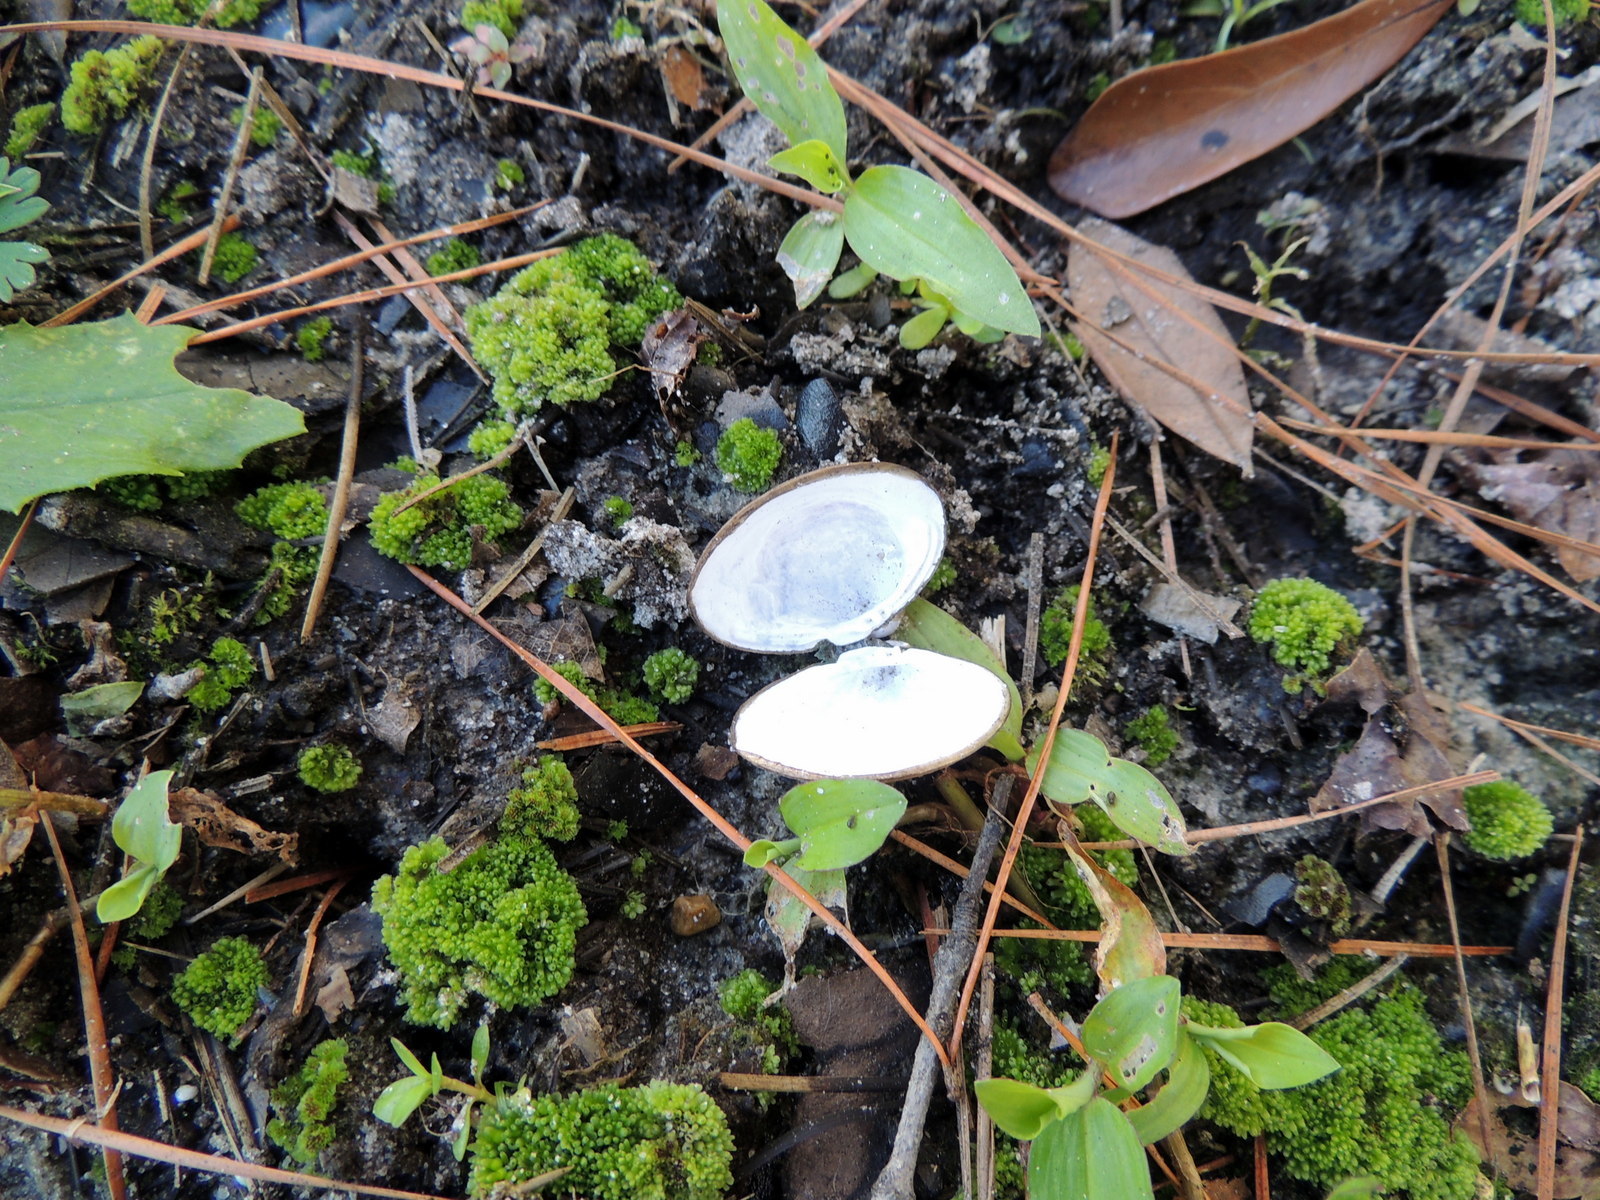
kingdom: Animalia
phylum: Mollusca
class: Bivalvia
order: Venerida
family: Cyrenidae
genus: Corbicula
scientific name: Corbicula fluminea
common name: Asian clam
